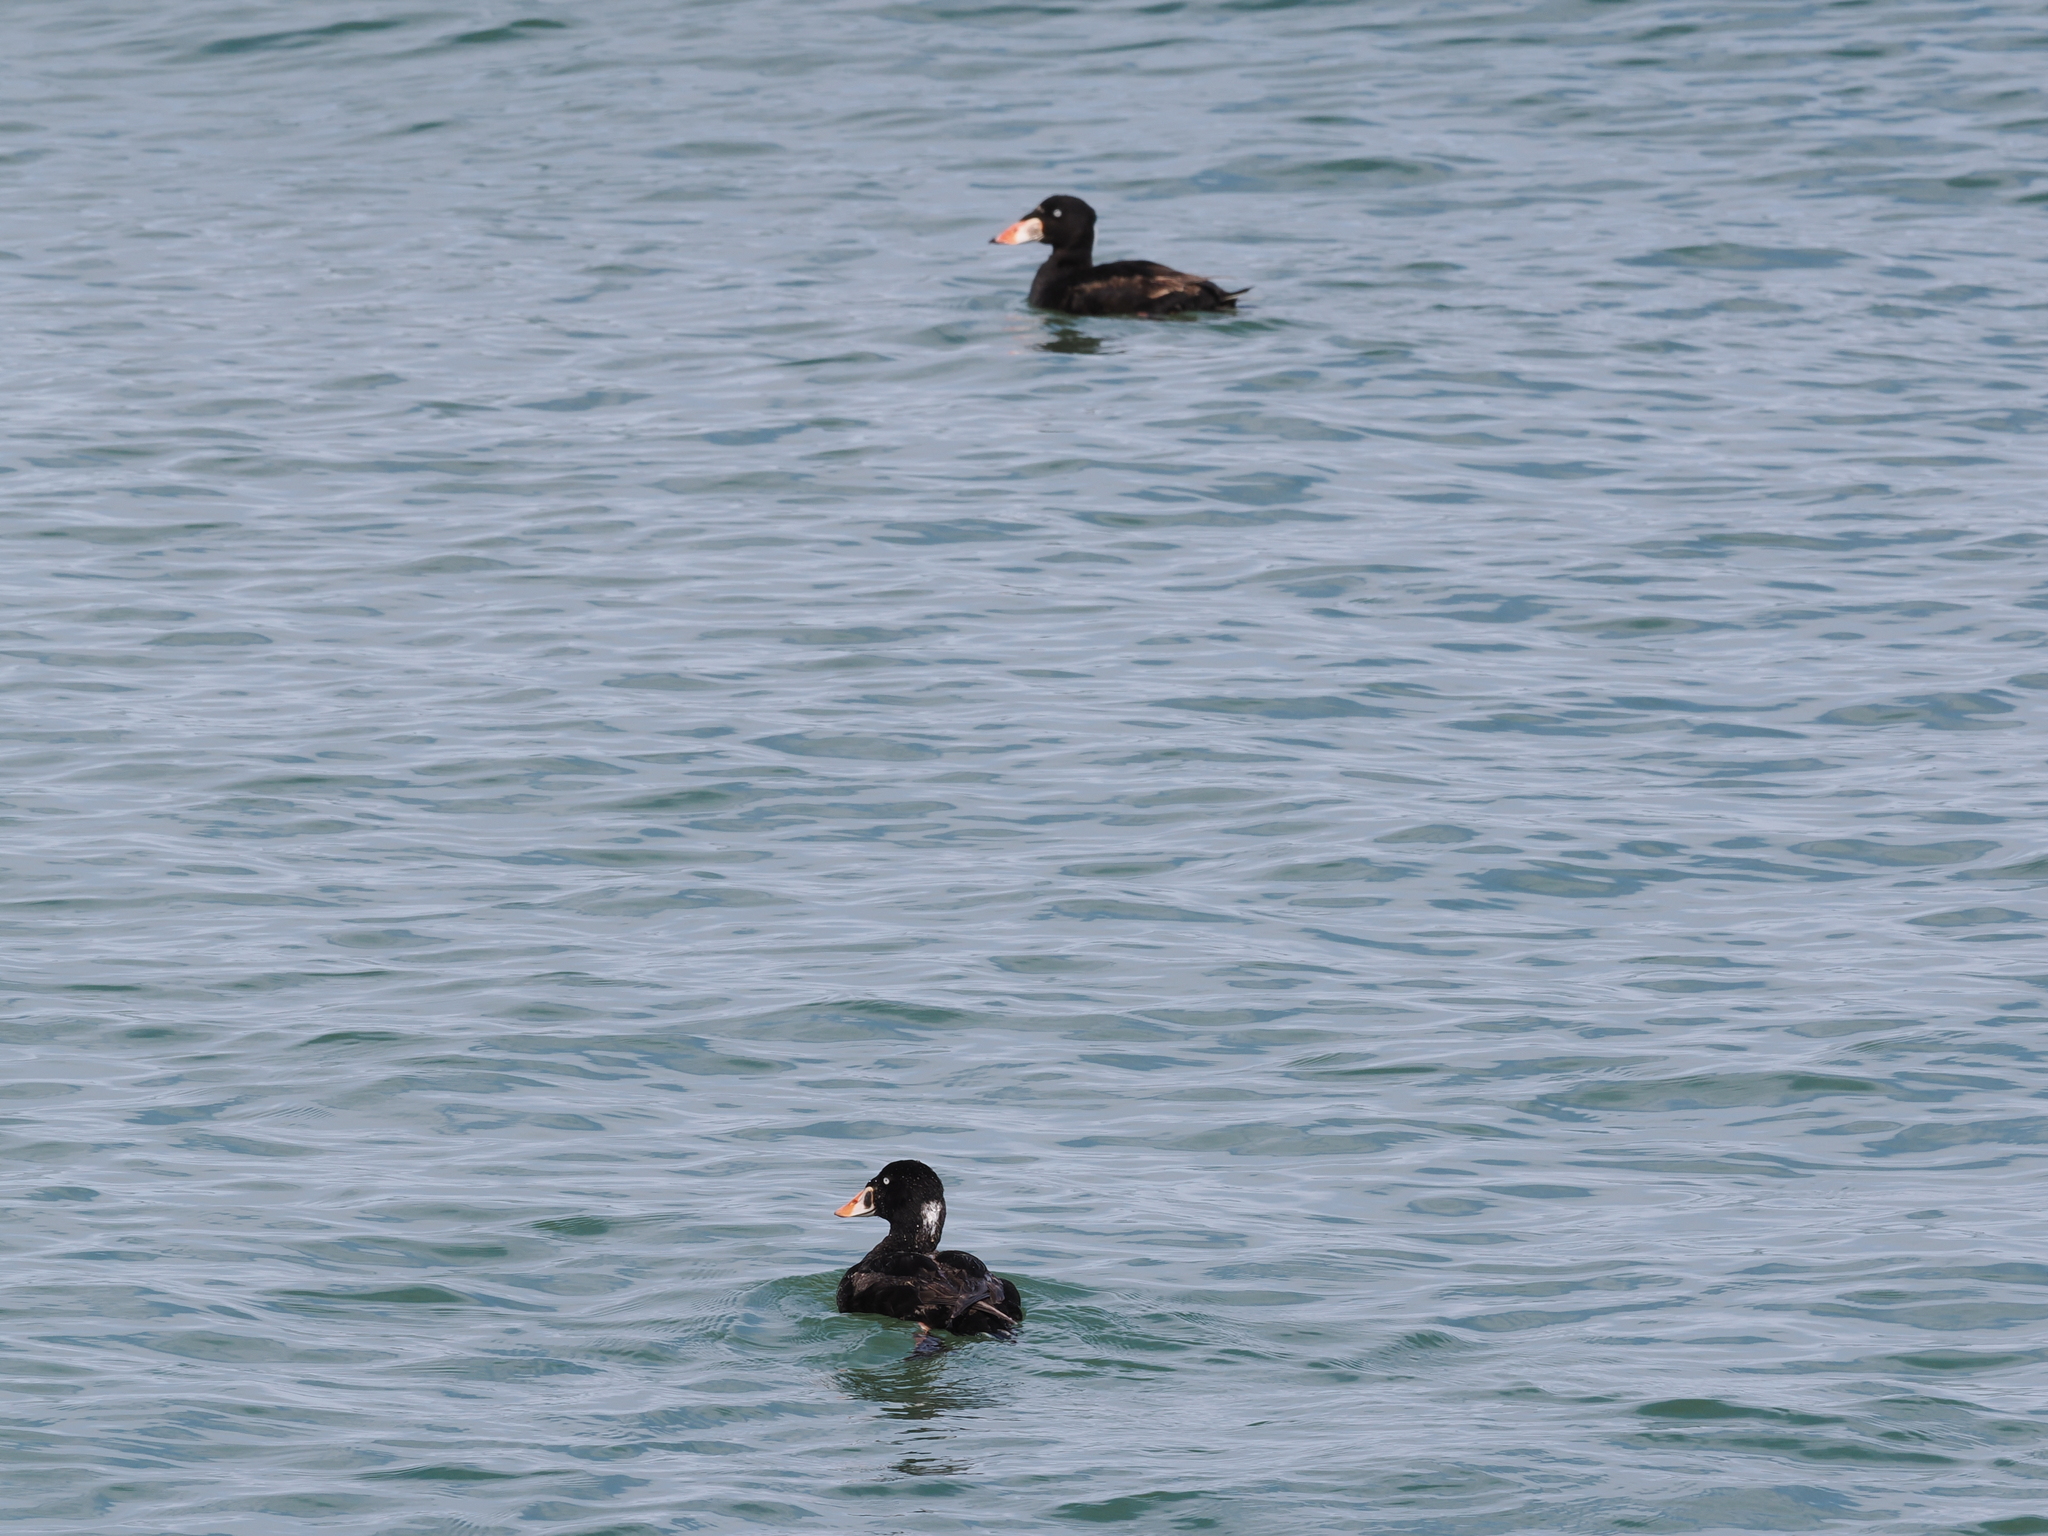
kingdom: Animalia
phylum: Chordata
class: Aves
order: Anseriformes
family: Anatidae
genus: Melanitta
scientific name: Melanitta perspicillata
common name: Surf scoter
